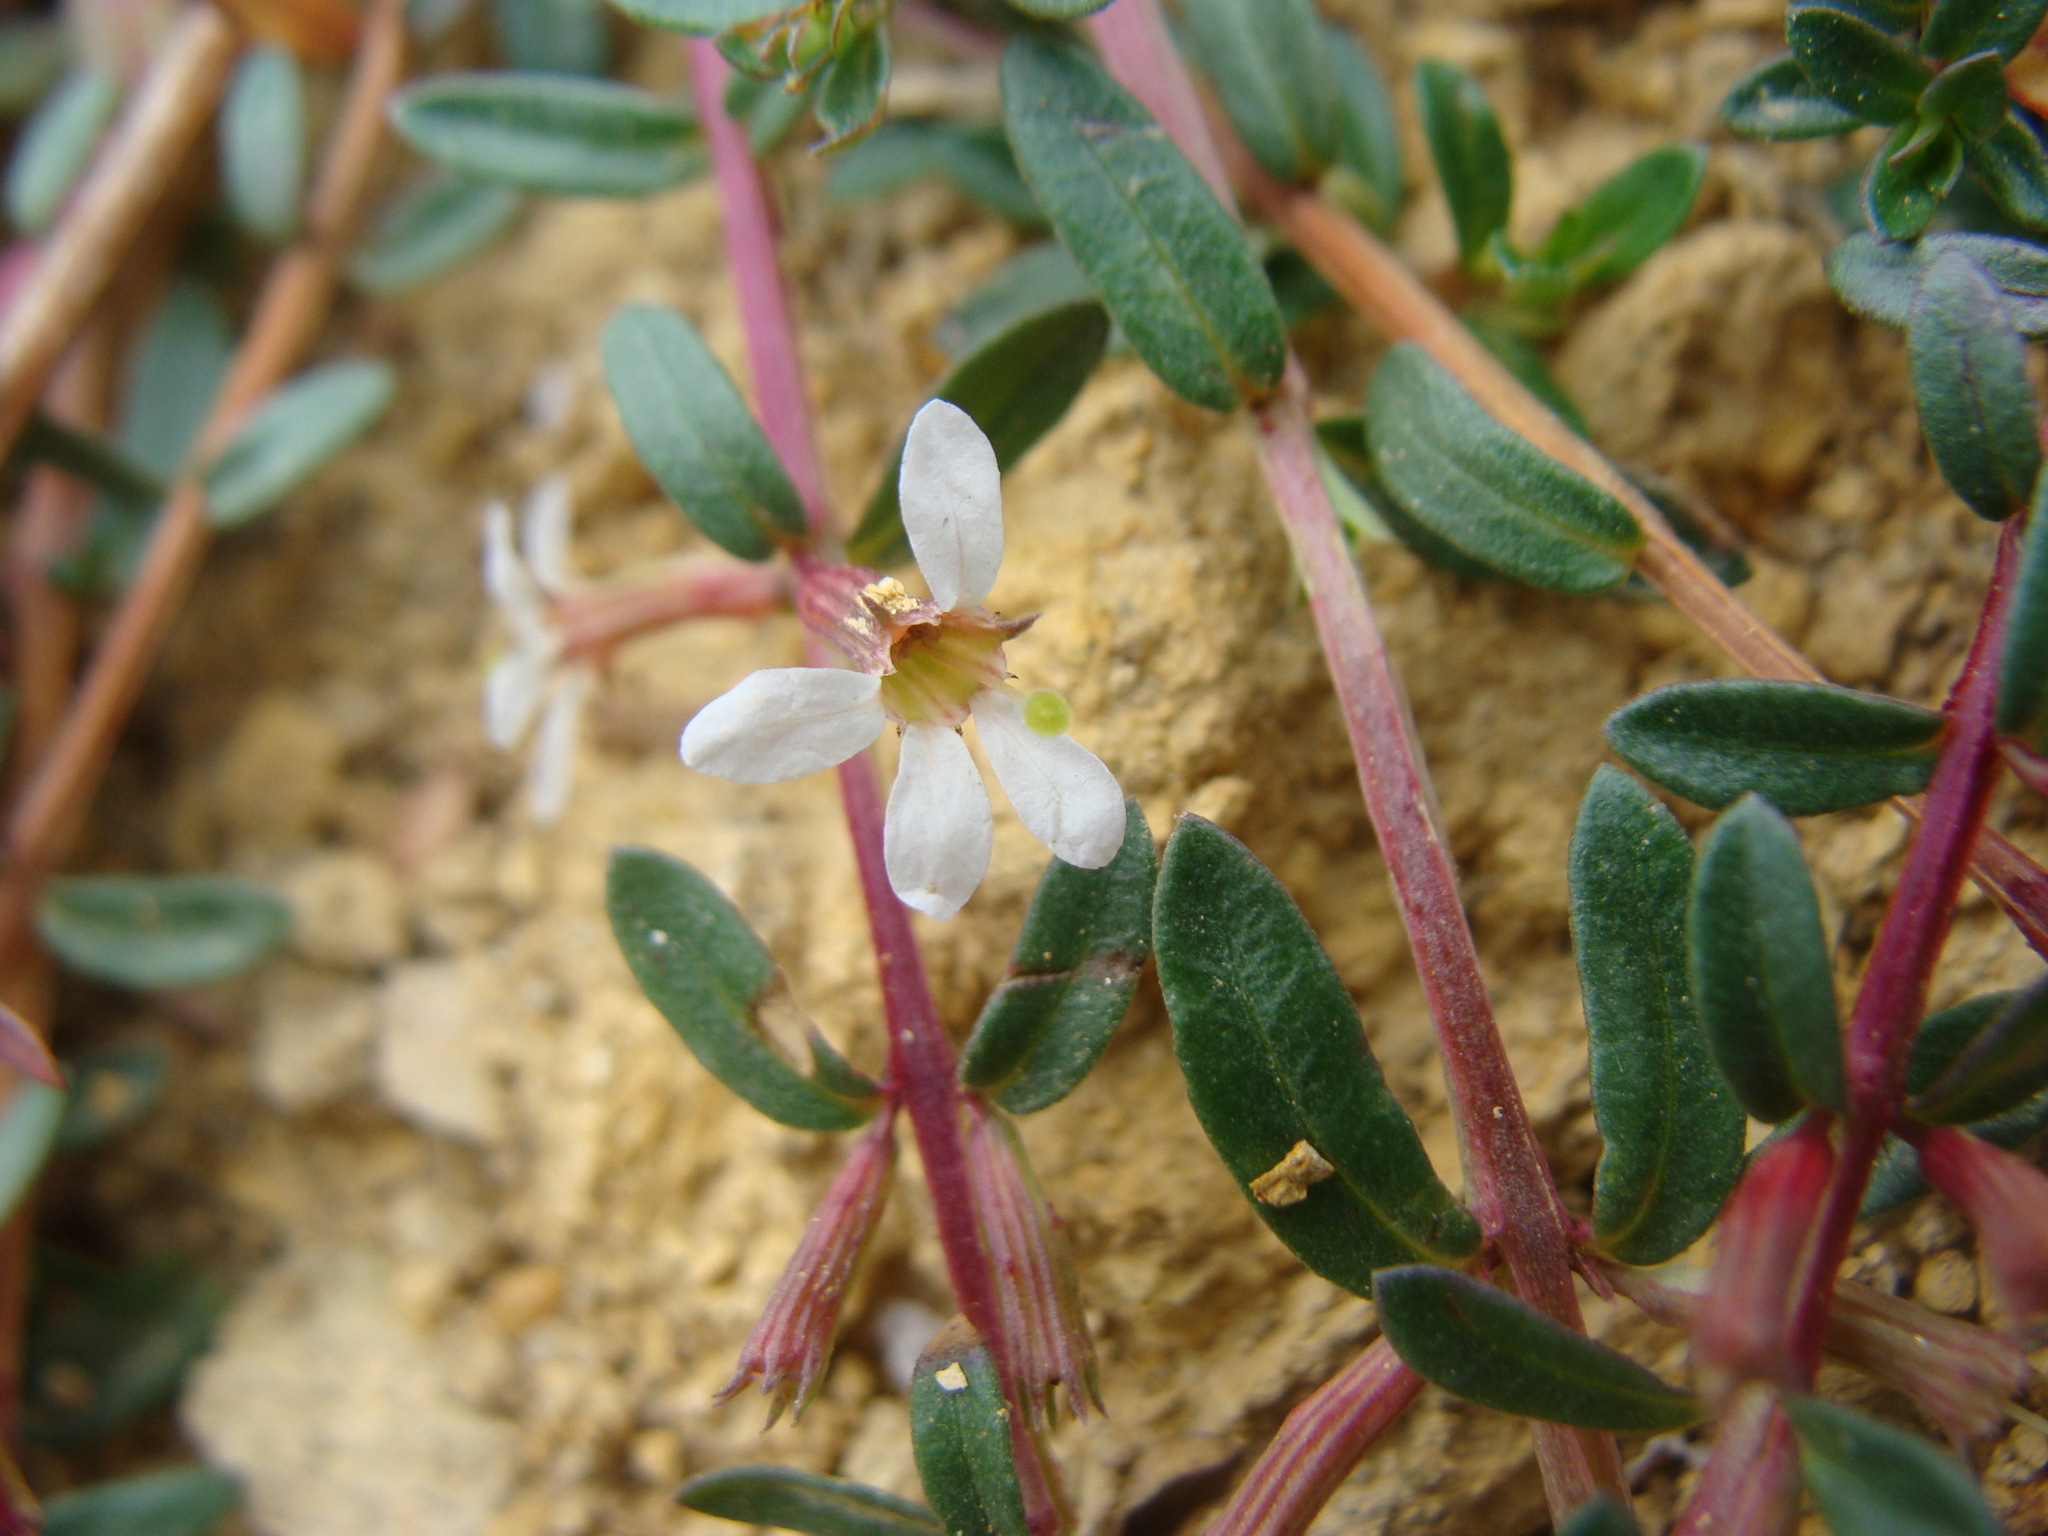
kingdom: Plantae
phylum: Tracheophyta
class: Magnoliopsida
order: Myrtales
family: Lythraceae
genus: Lythrum
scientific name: Lythrum gracile
